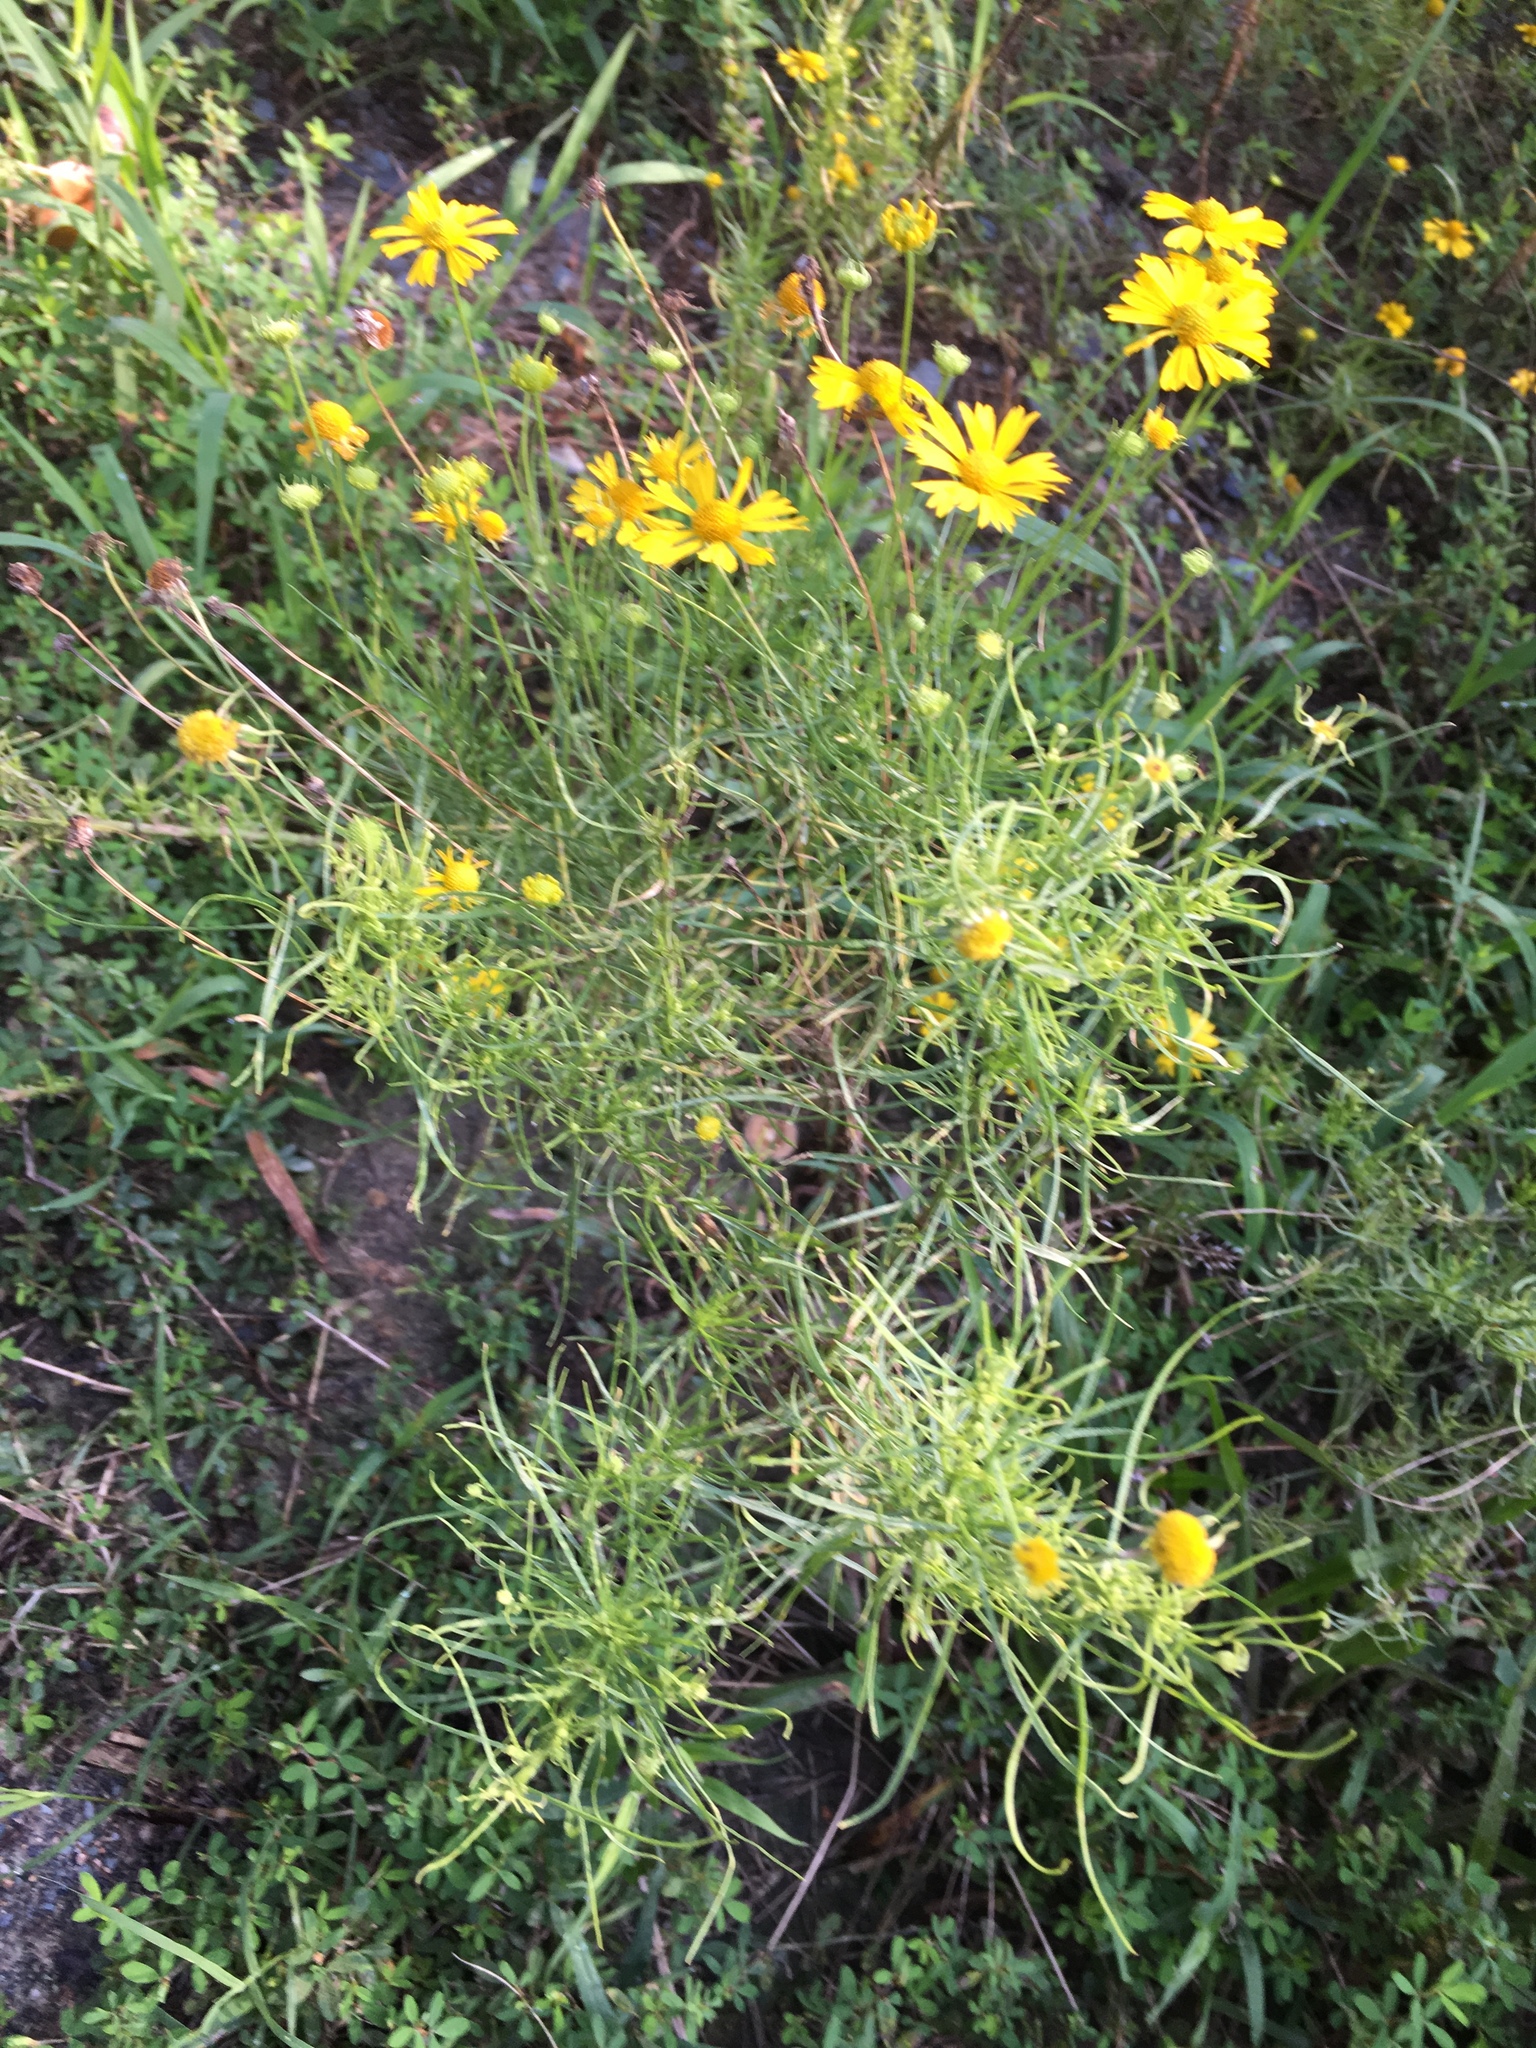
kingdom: Plantae
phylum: Tracheophyta
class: Magnoliopsida
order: Asterales
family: Asteraceae
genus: Helenium
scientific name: Helenium amarum
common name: Bitter sneezeweed
